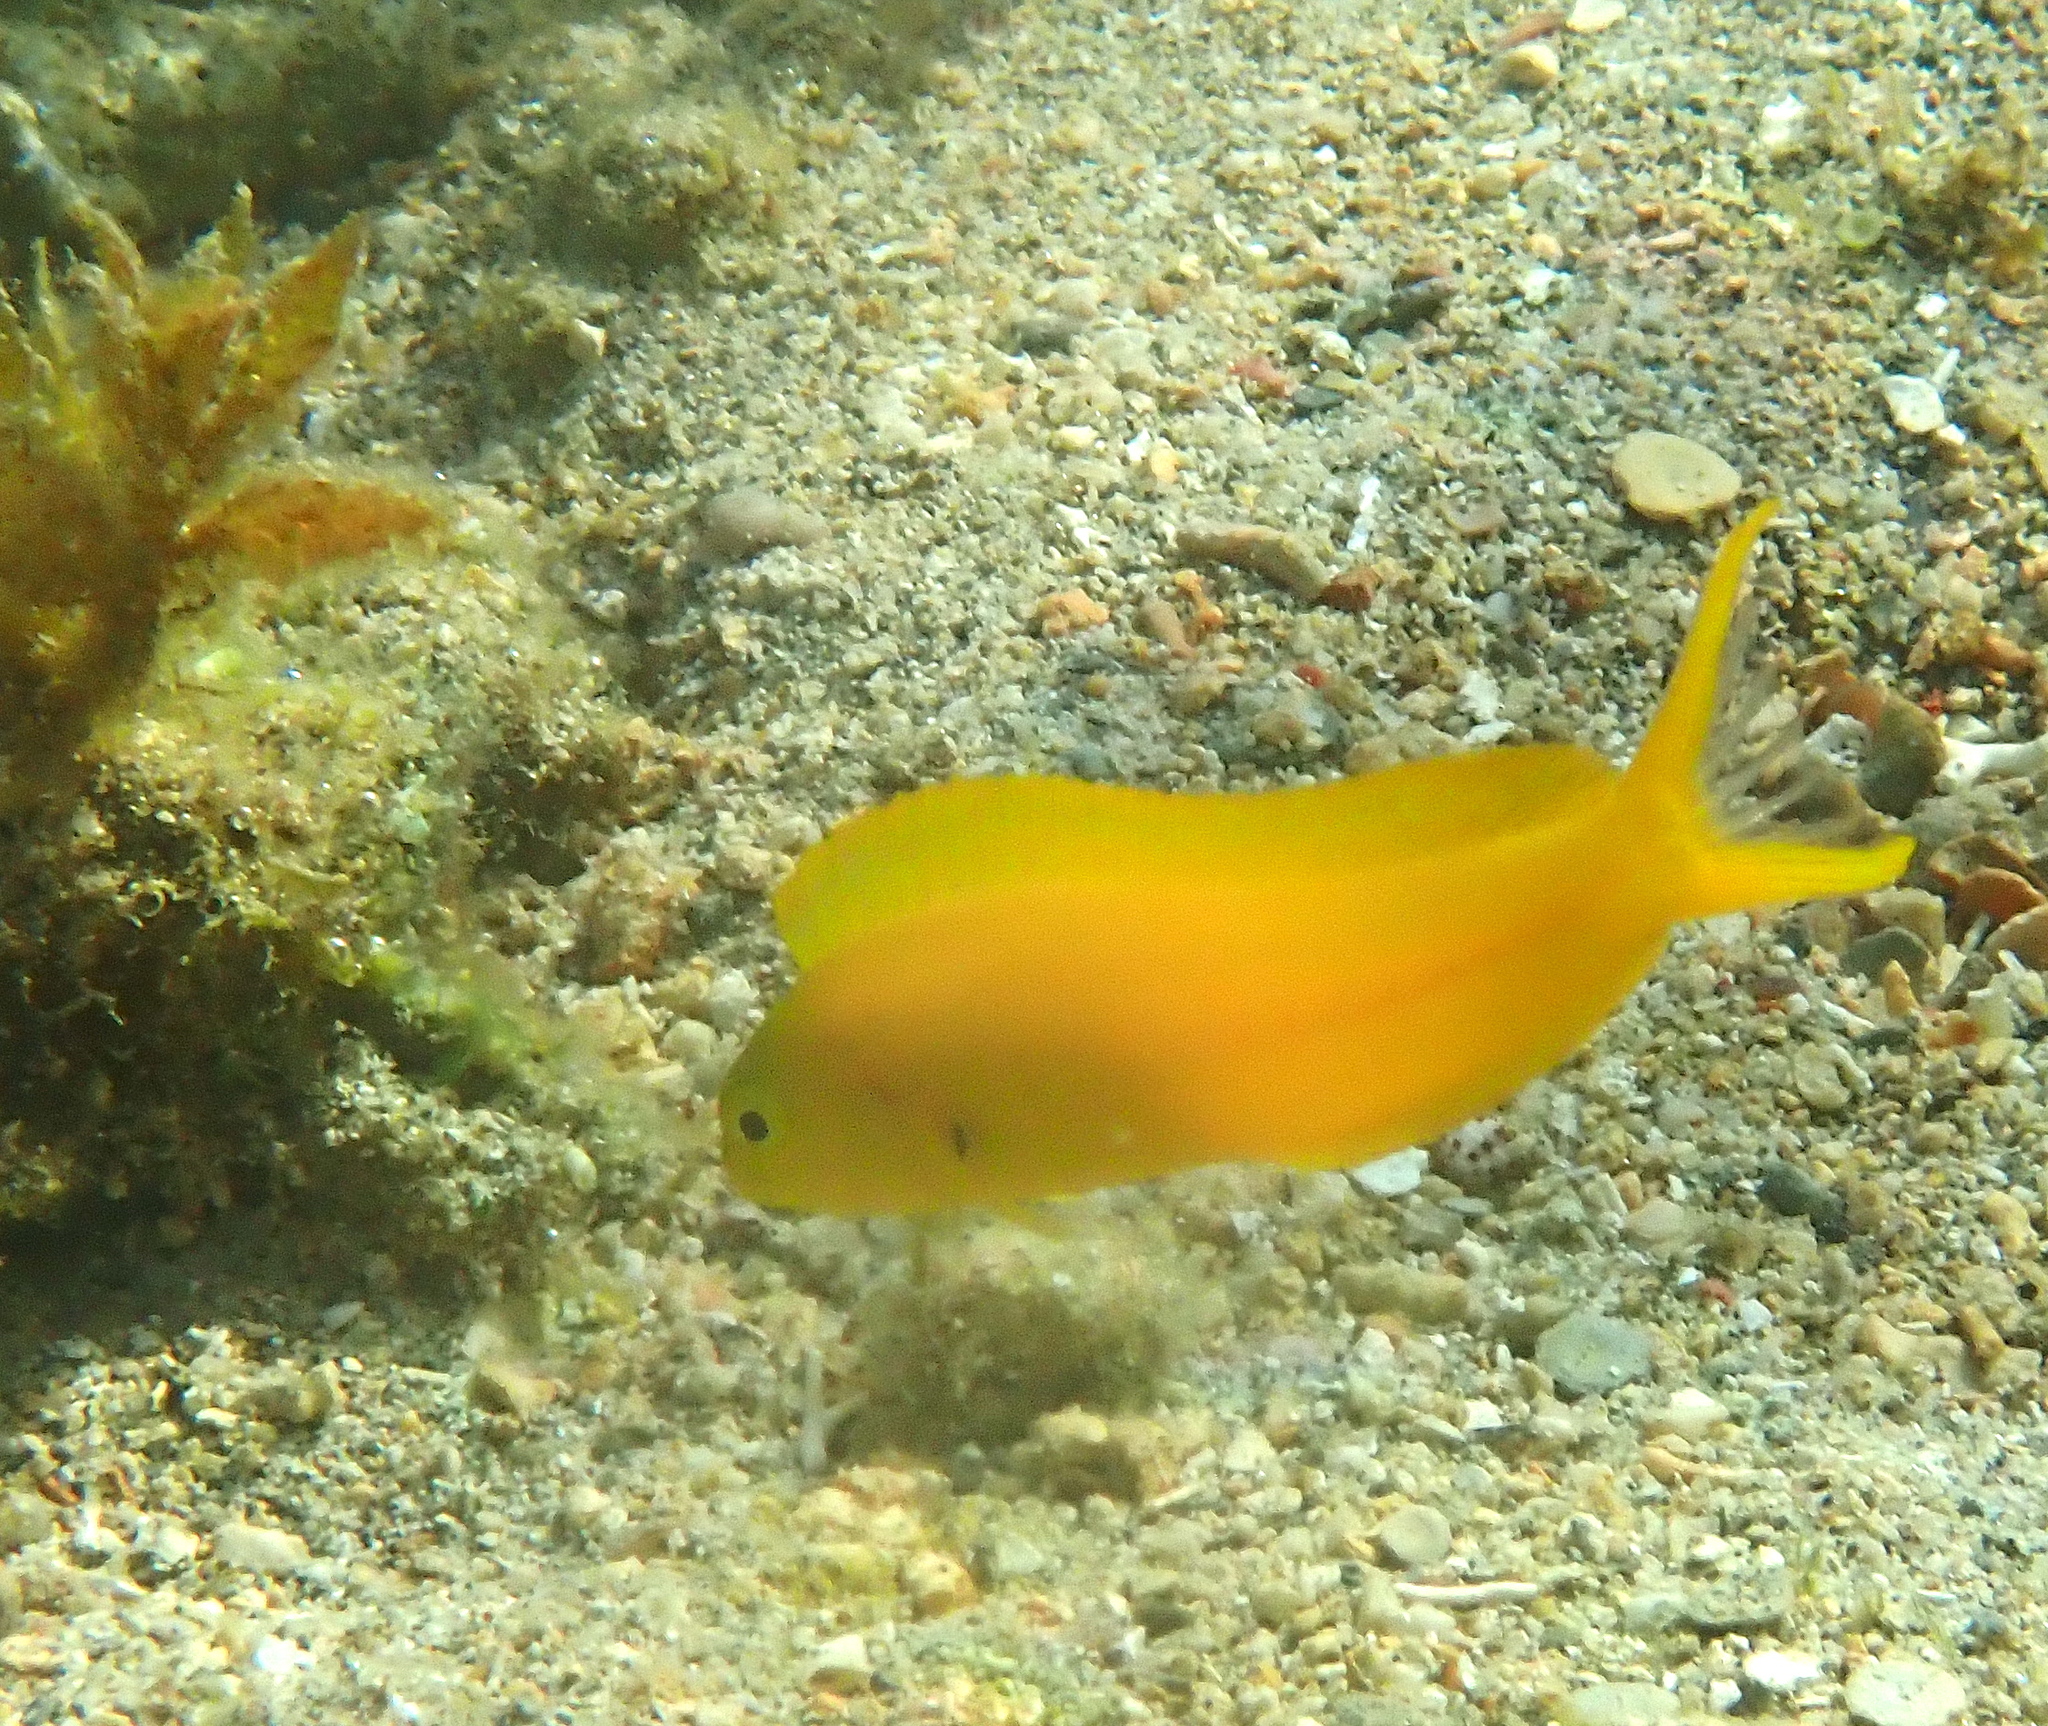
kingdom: Animalia
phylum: Chordata
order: Perciformes
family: Blenniidae
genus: Meiacanthus
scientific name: Meiacanthus oualanensis
